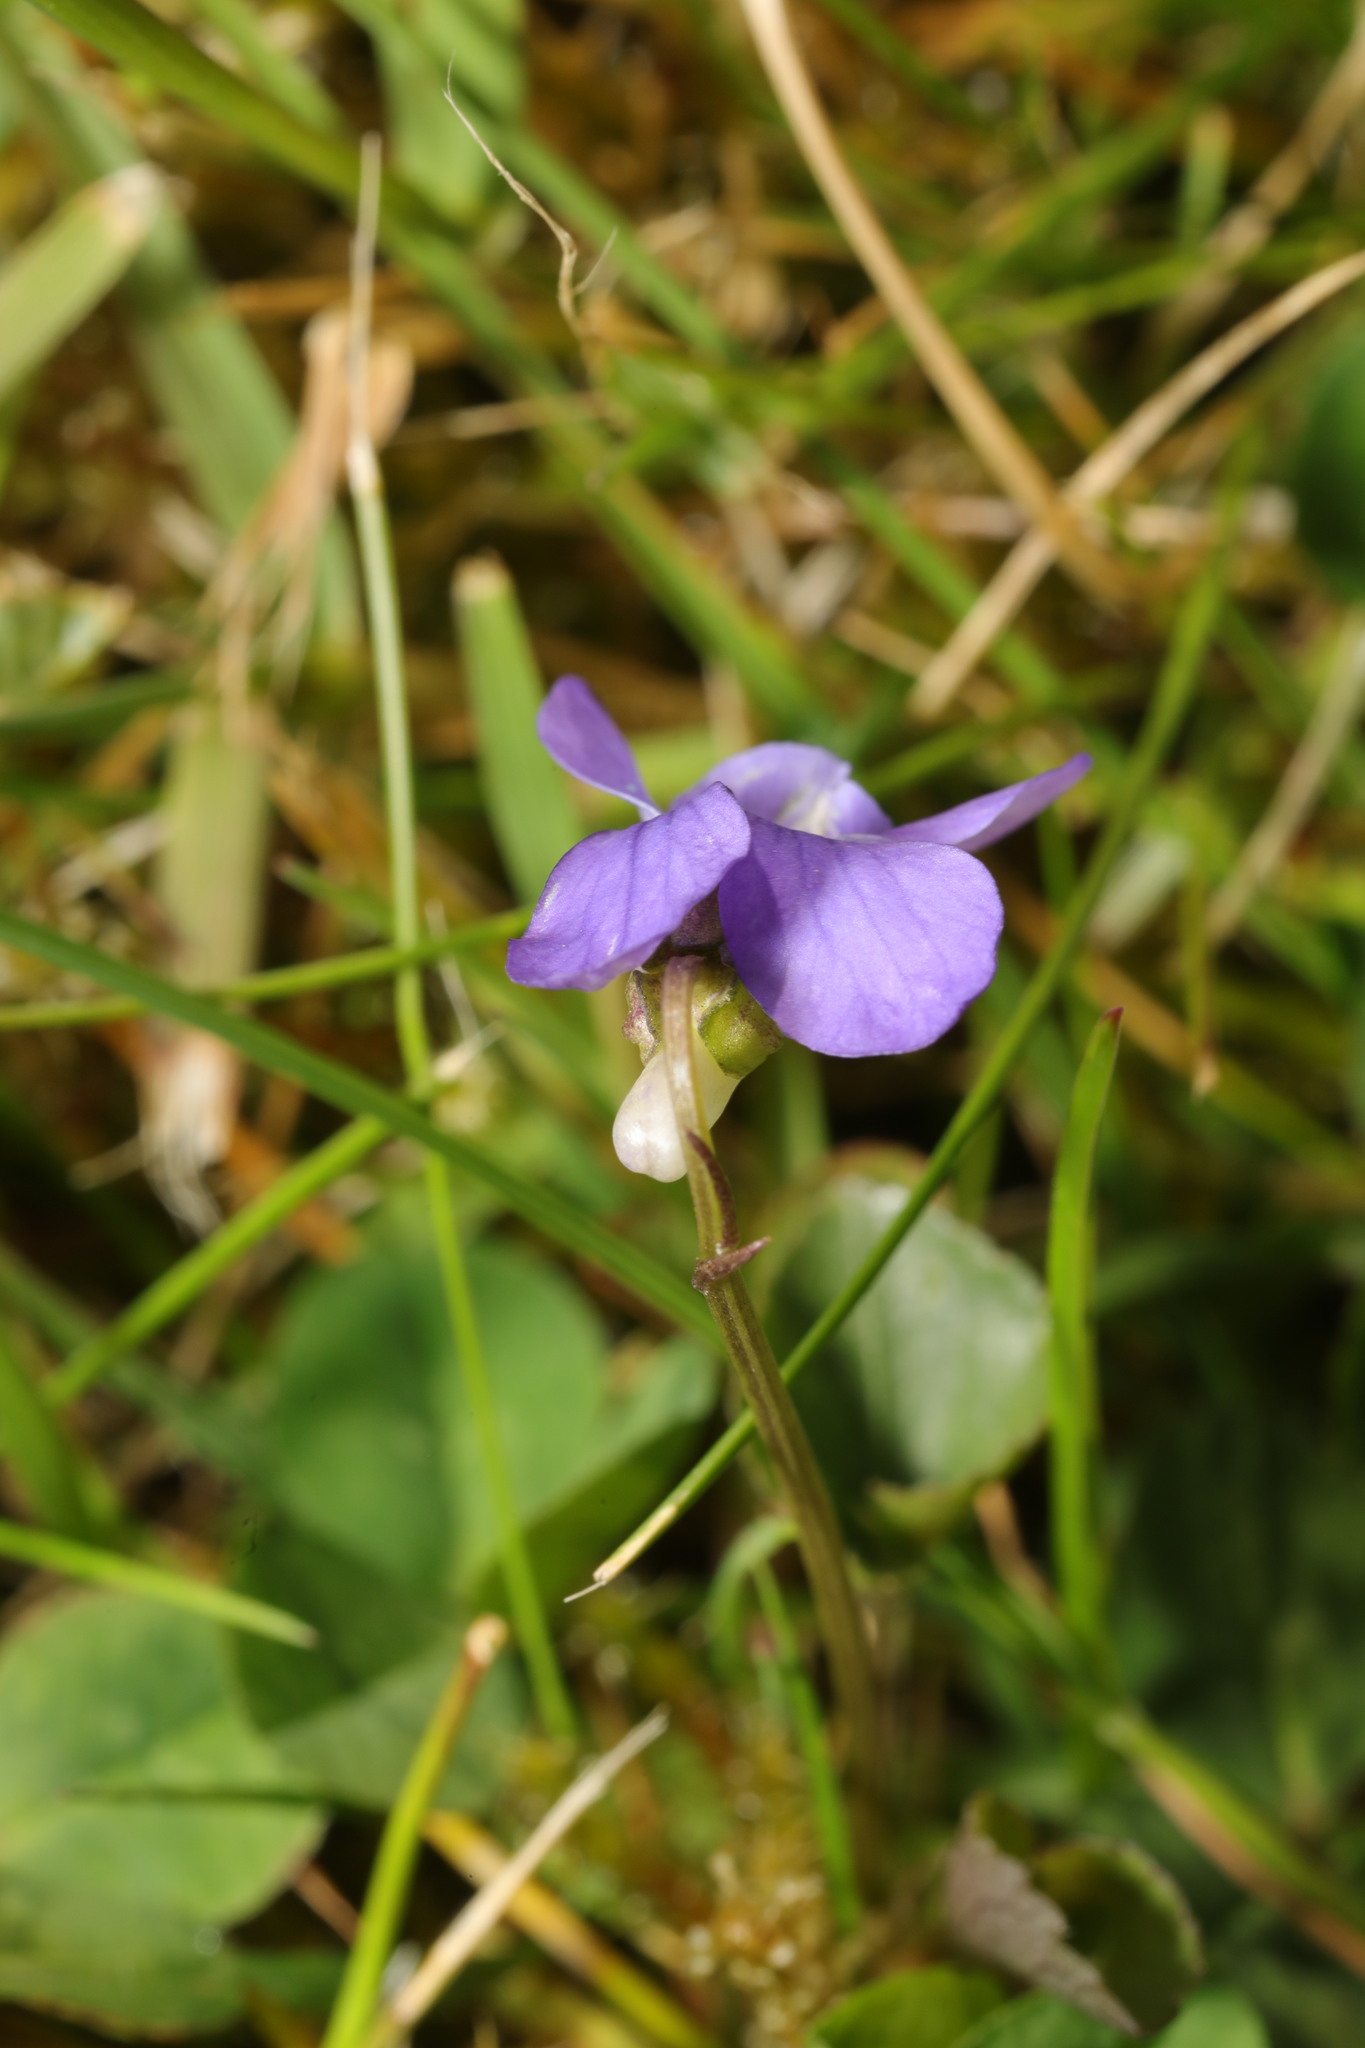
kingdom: Plantae
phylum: Tracheophyta
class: Magnoliopsida
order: Malpighiales
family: Violaceae
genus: Viola
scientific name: Viola riviniana
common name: Common dog-violet
